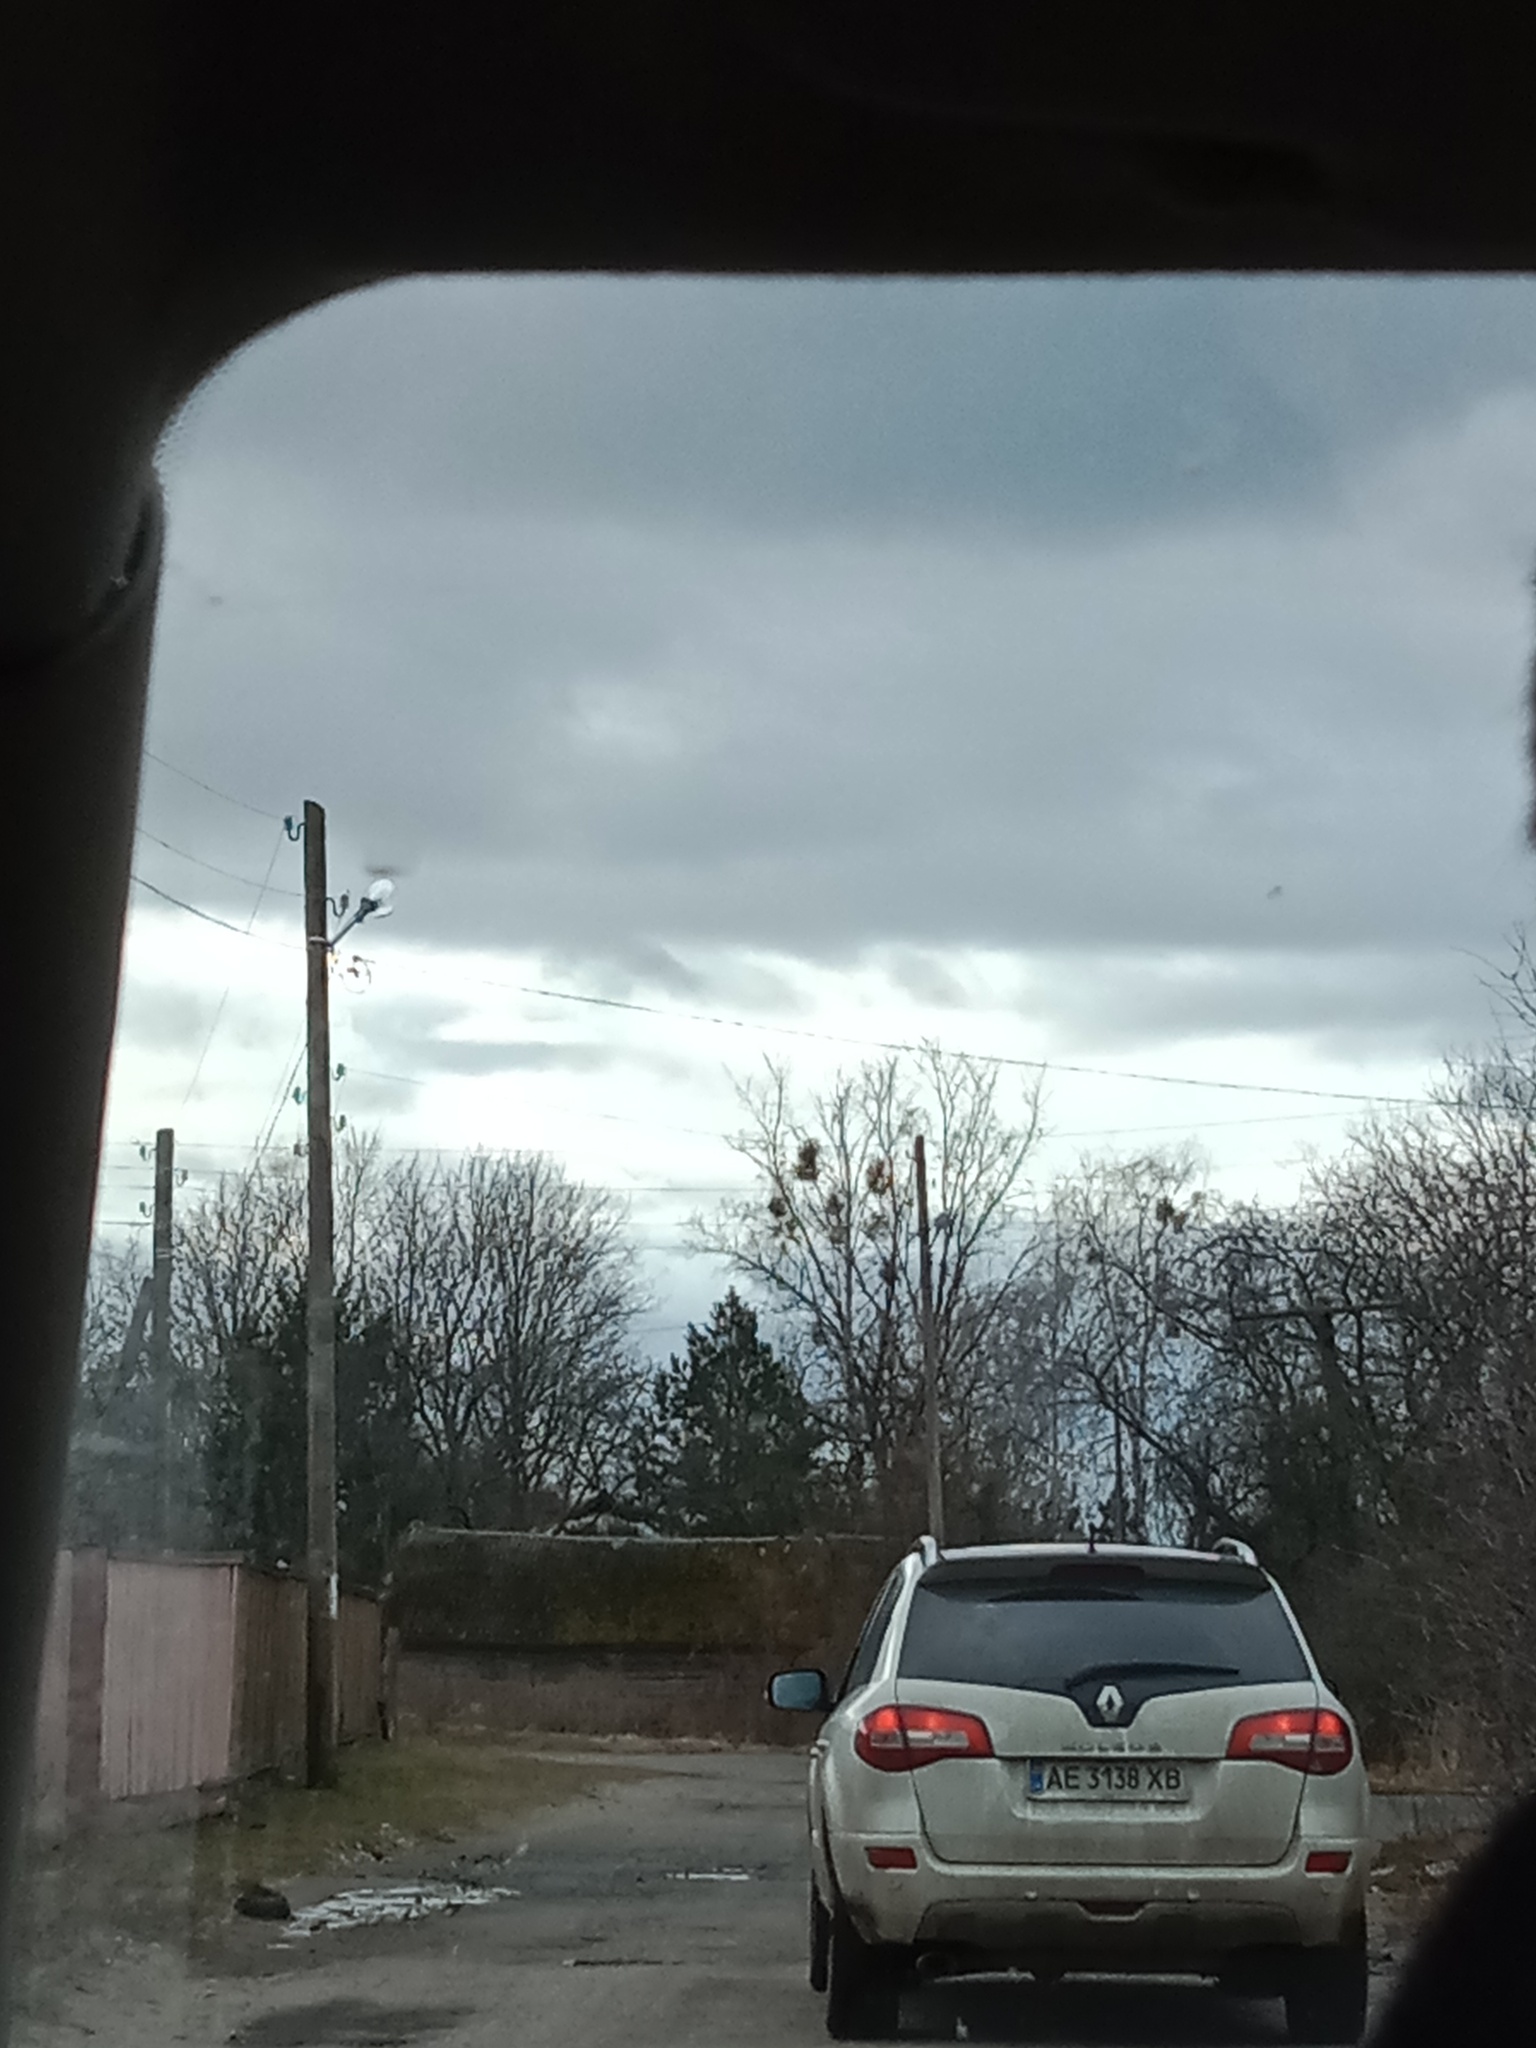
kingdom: Plantae
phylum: Tracheophyta
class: Magnoliopsida
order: Santalales
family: Viscaceae
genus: Viscum
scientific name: Viscum album
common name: Mistletoe
